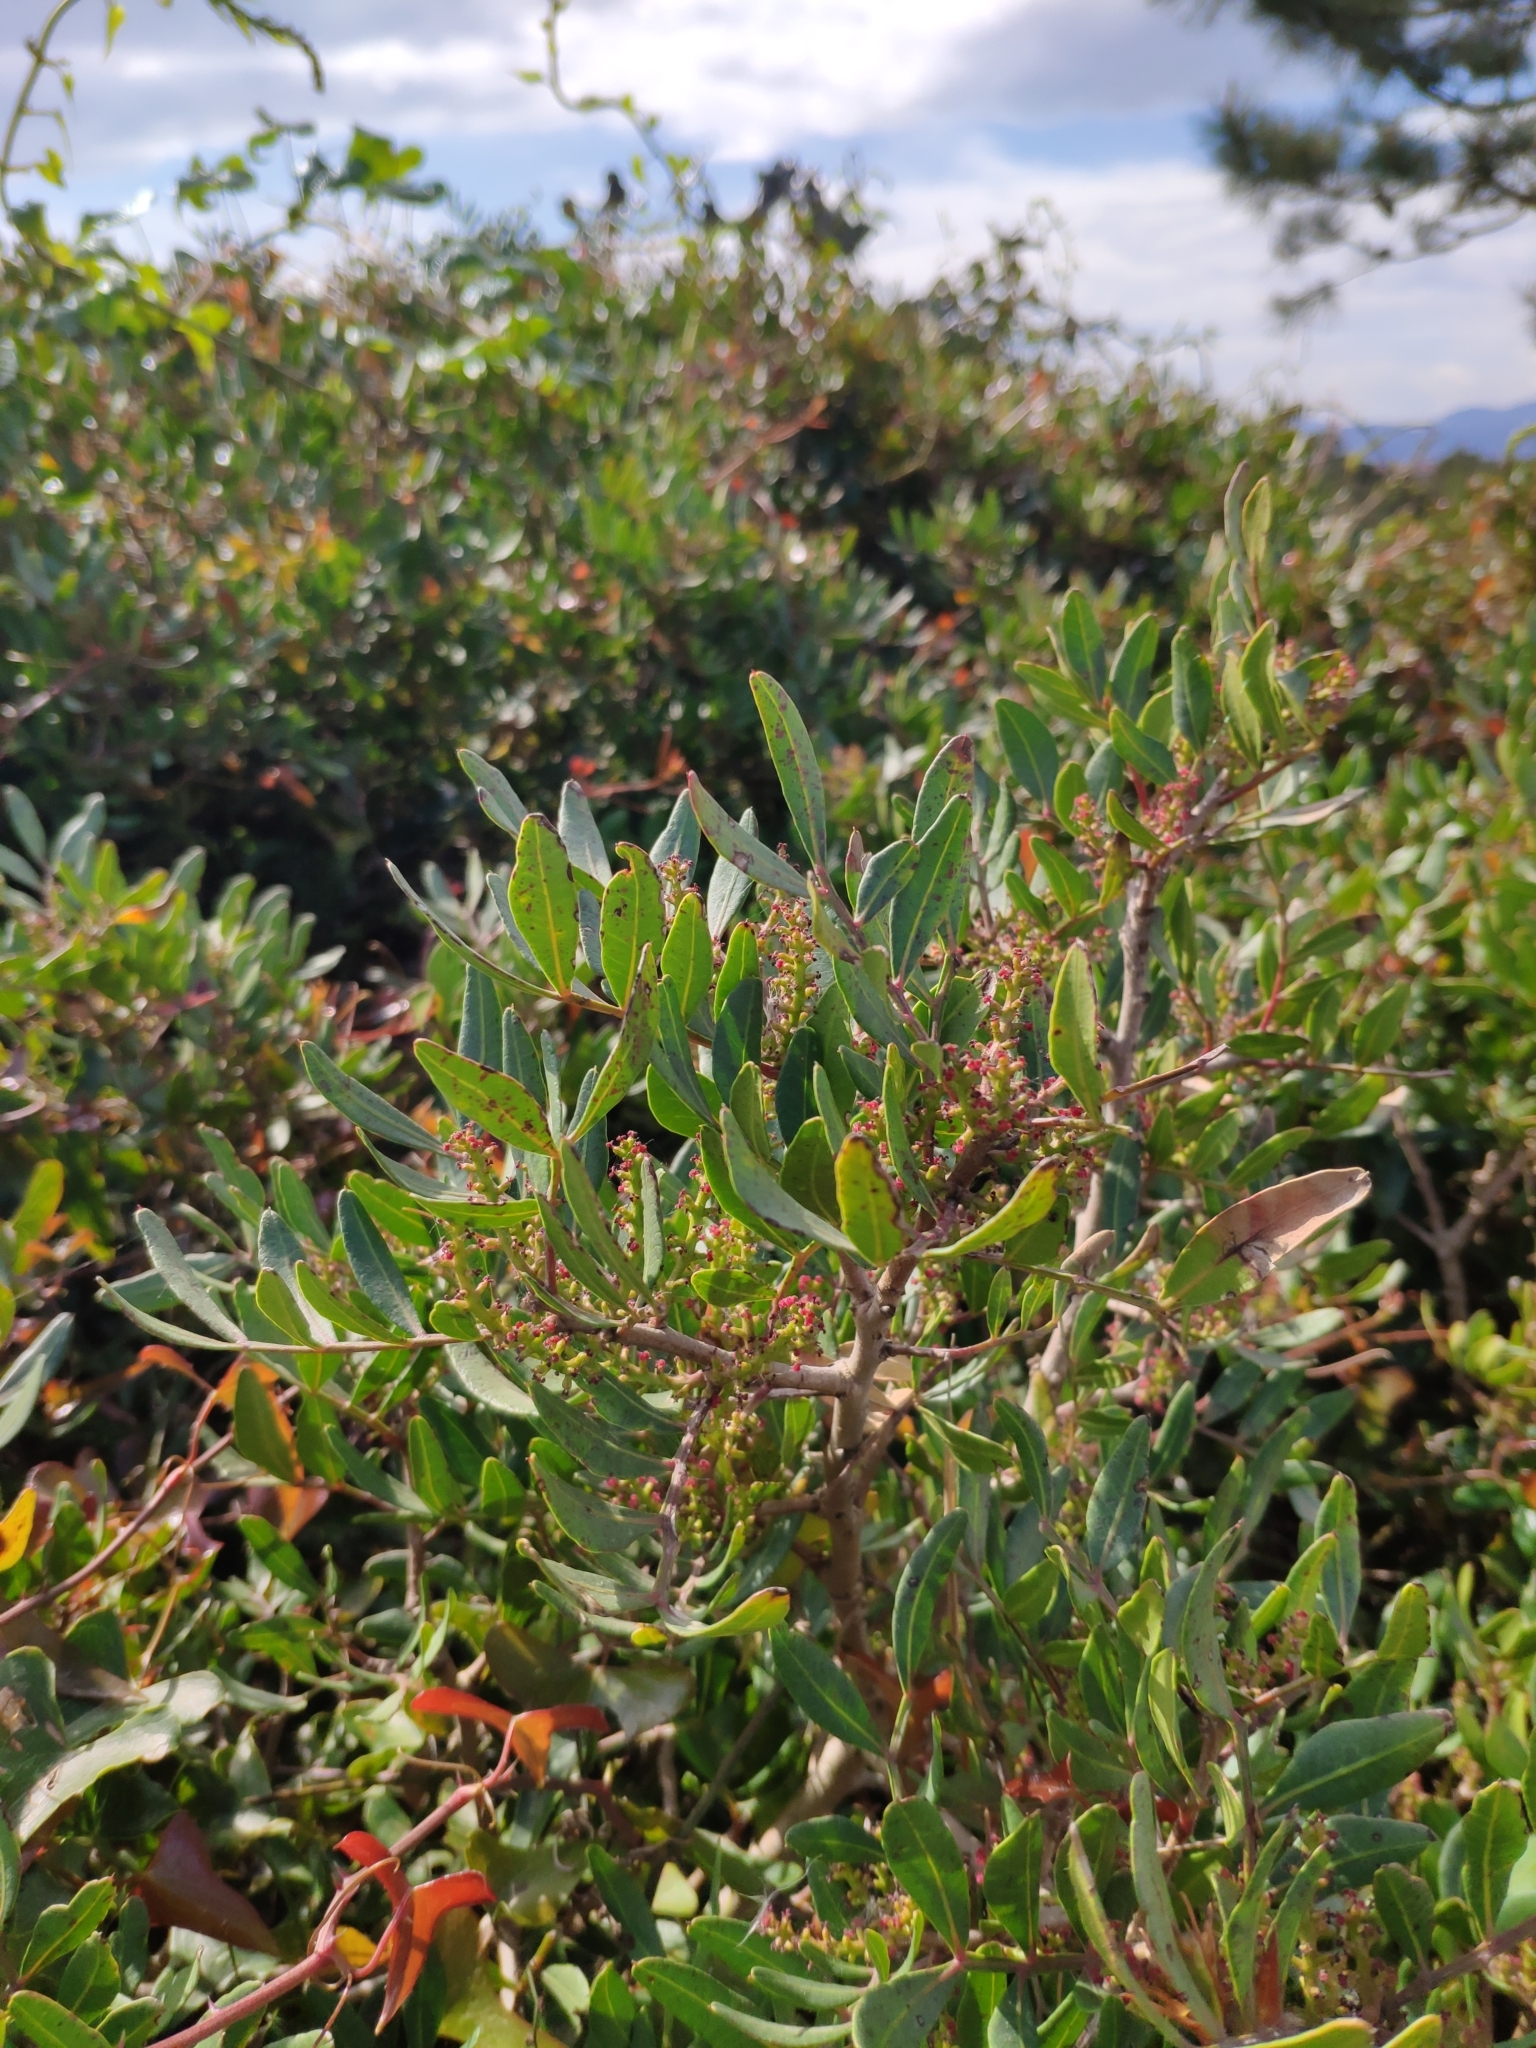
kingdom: Plantae
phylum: Tracheophyta
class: Magnoliopsida
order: Sapindales
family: Anacardiaceae
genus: Pistacia
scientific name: Pistacia lentiscus
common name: Lentisk
